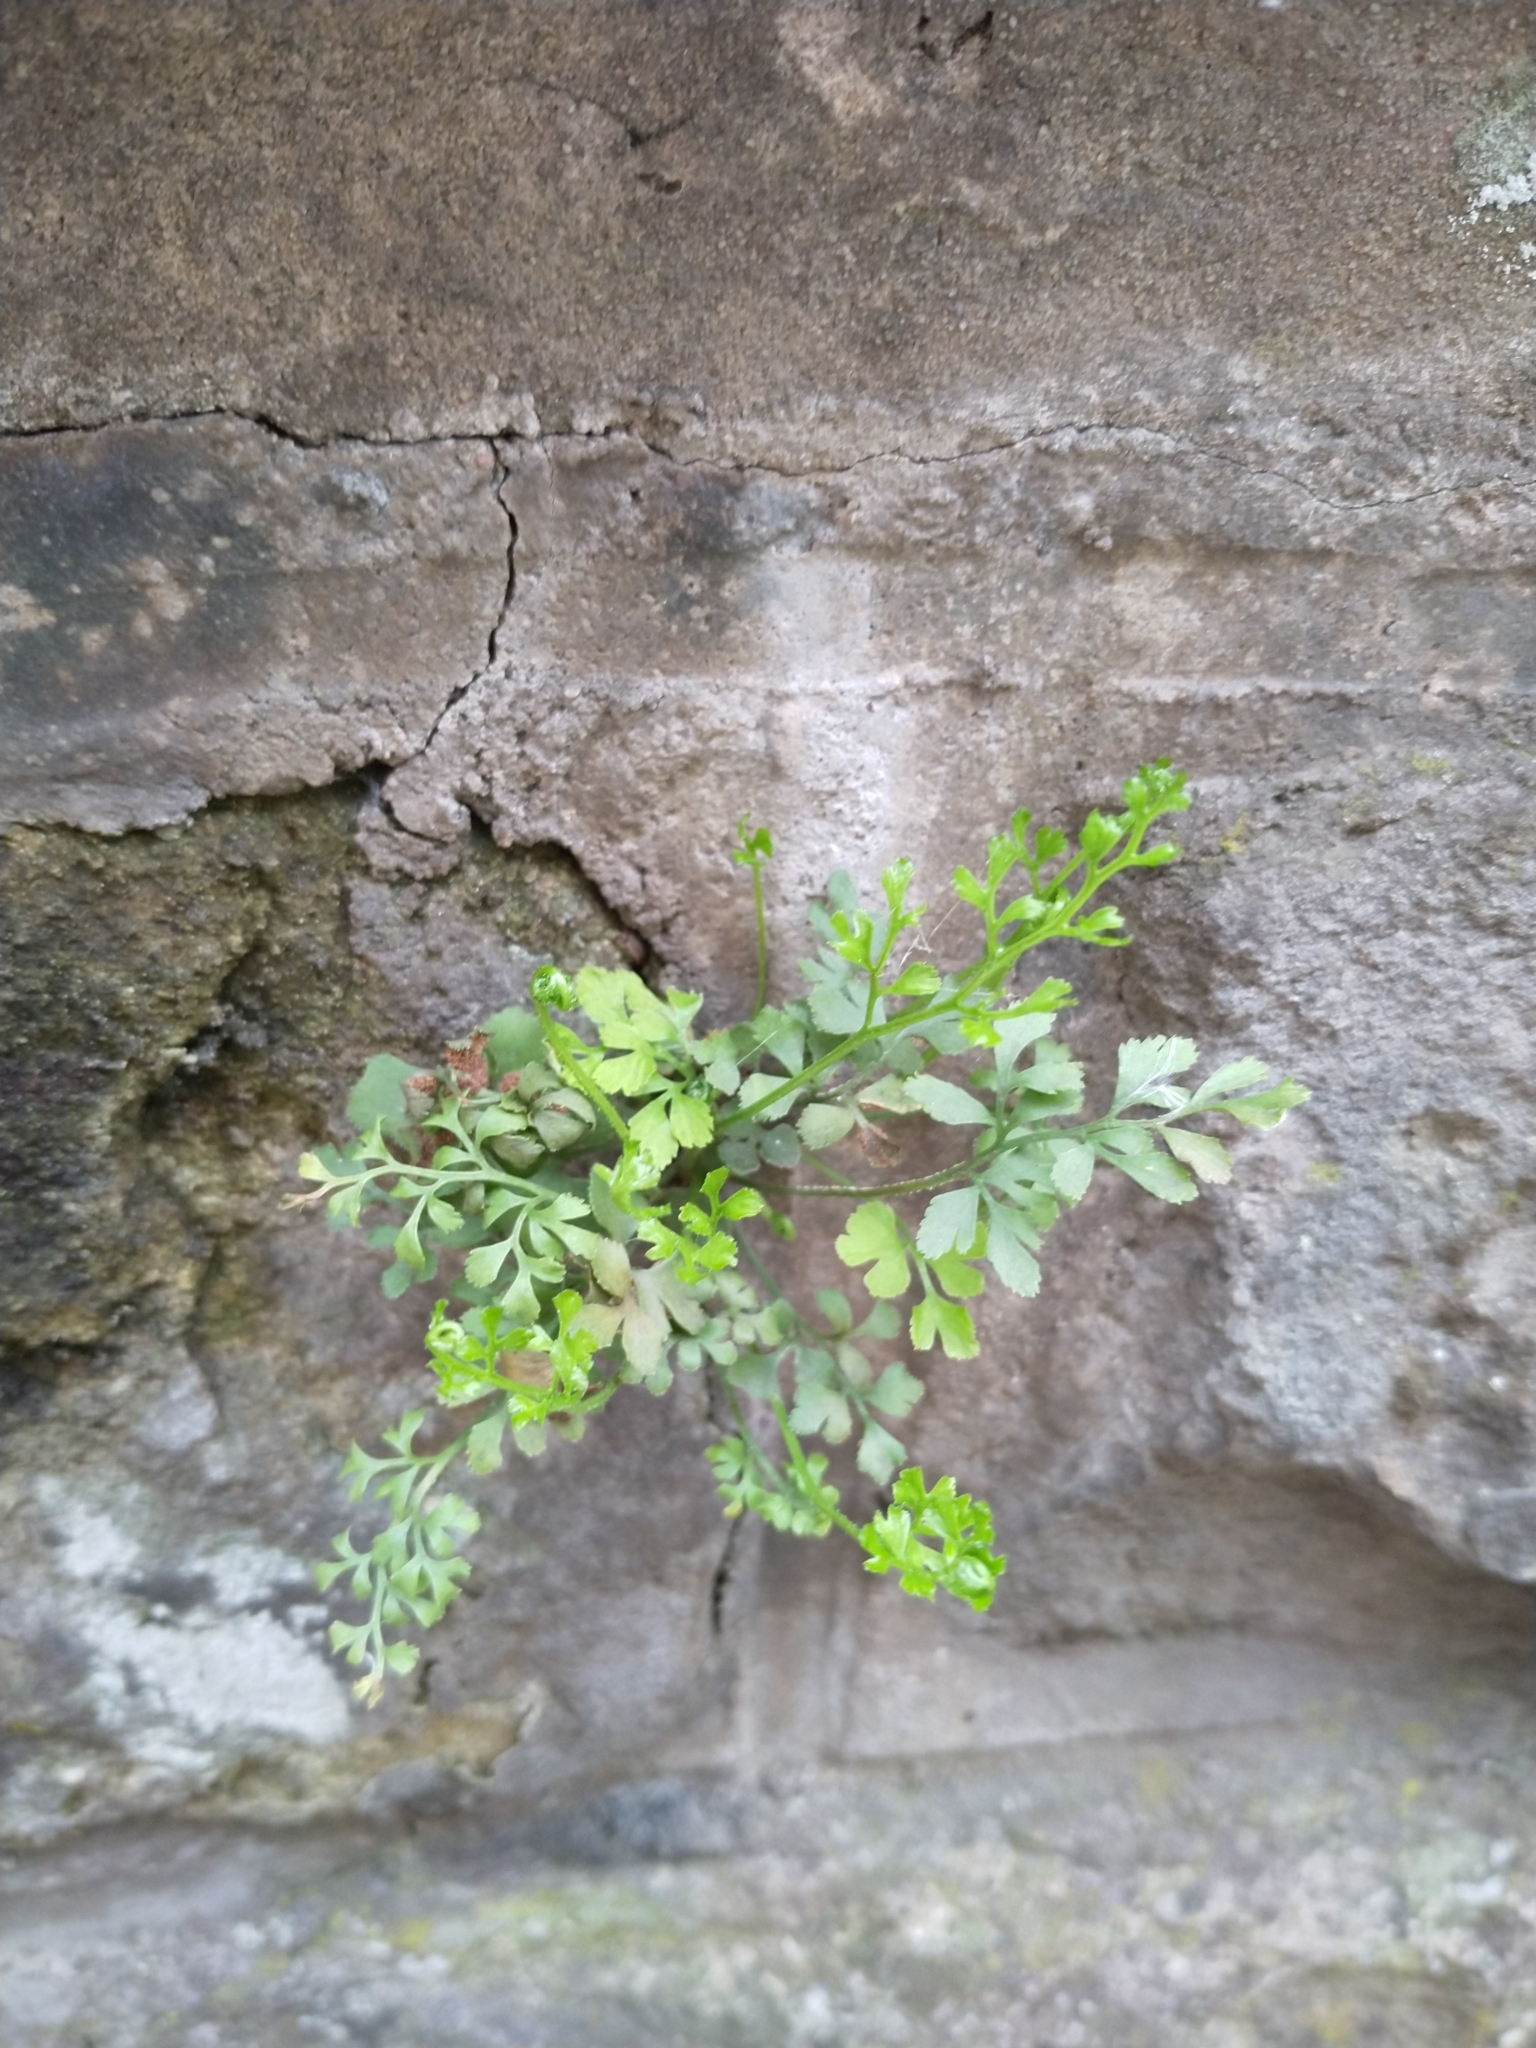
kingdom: Plantae
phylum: Tracheophyta
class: Polypodiopsida
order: Polypodiales
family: Aspleniaceae
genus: Asplenium
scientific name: Asplenium ruta-muraria
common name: Wall-rue
